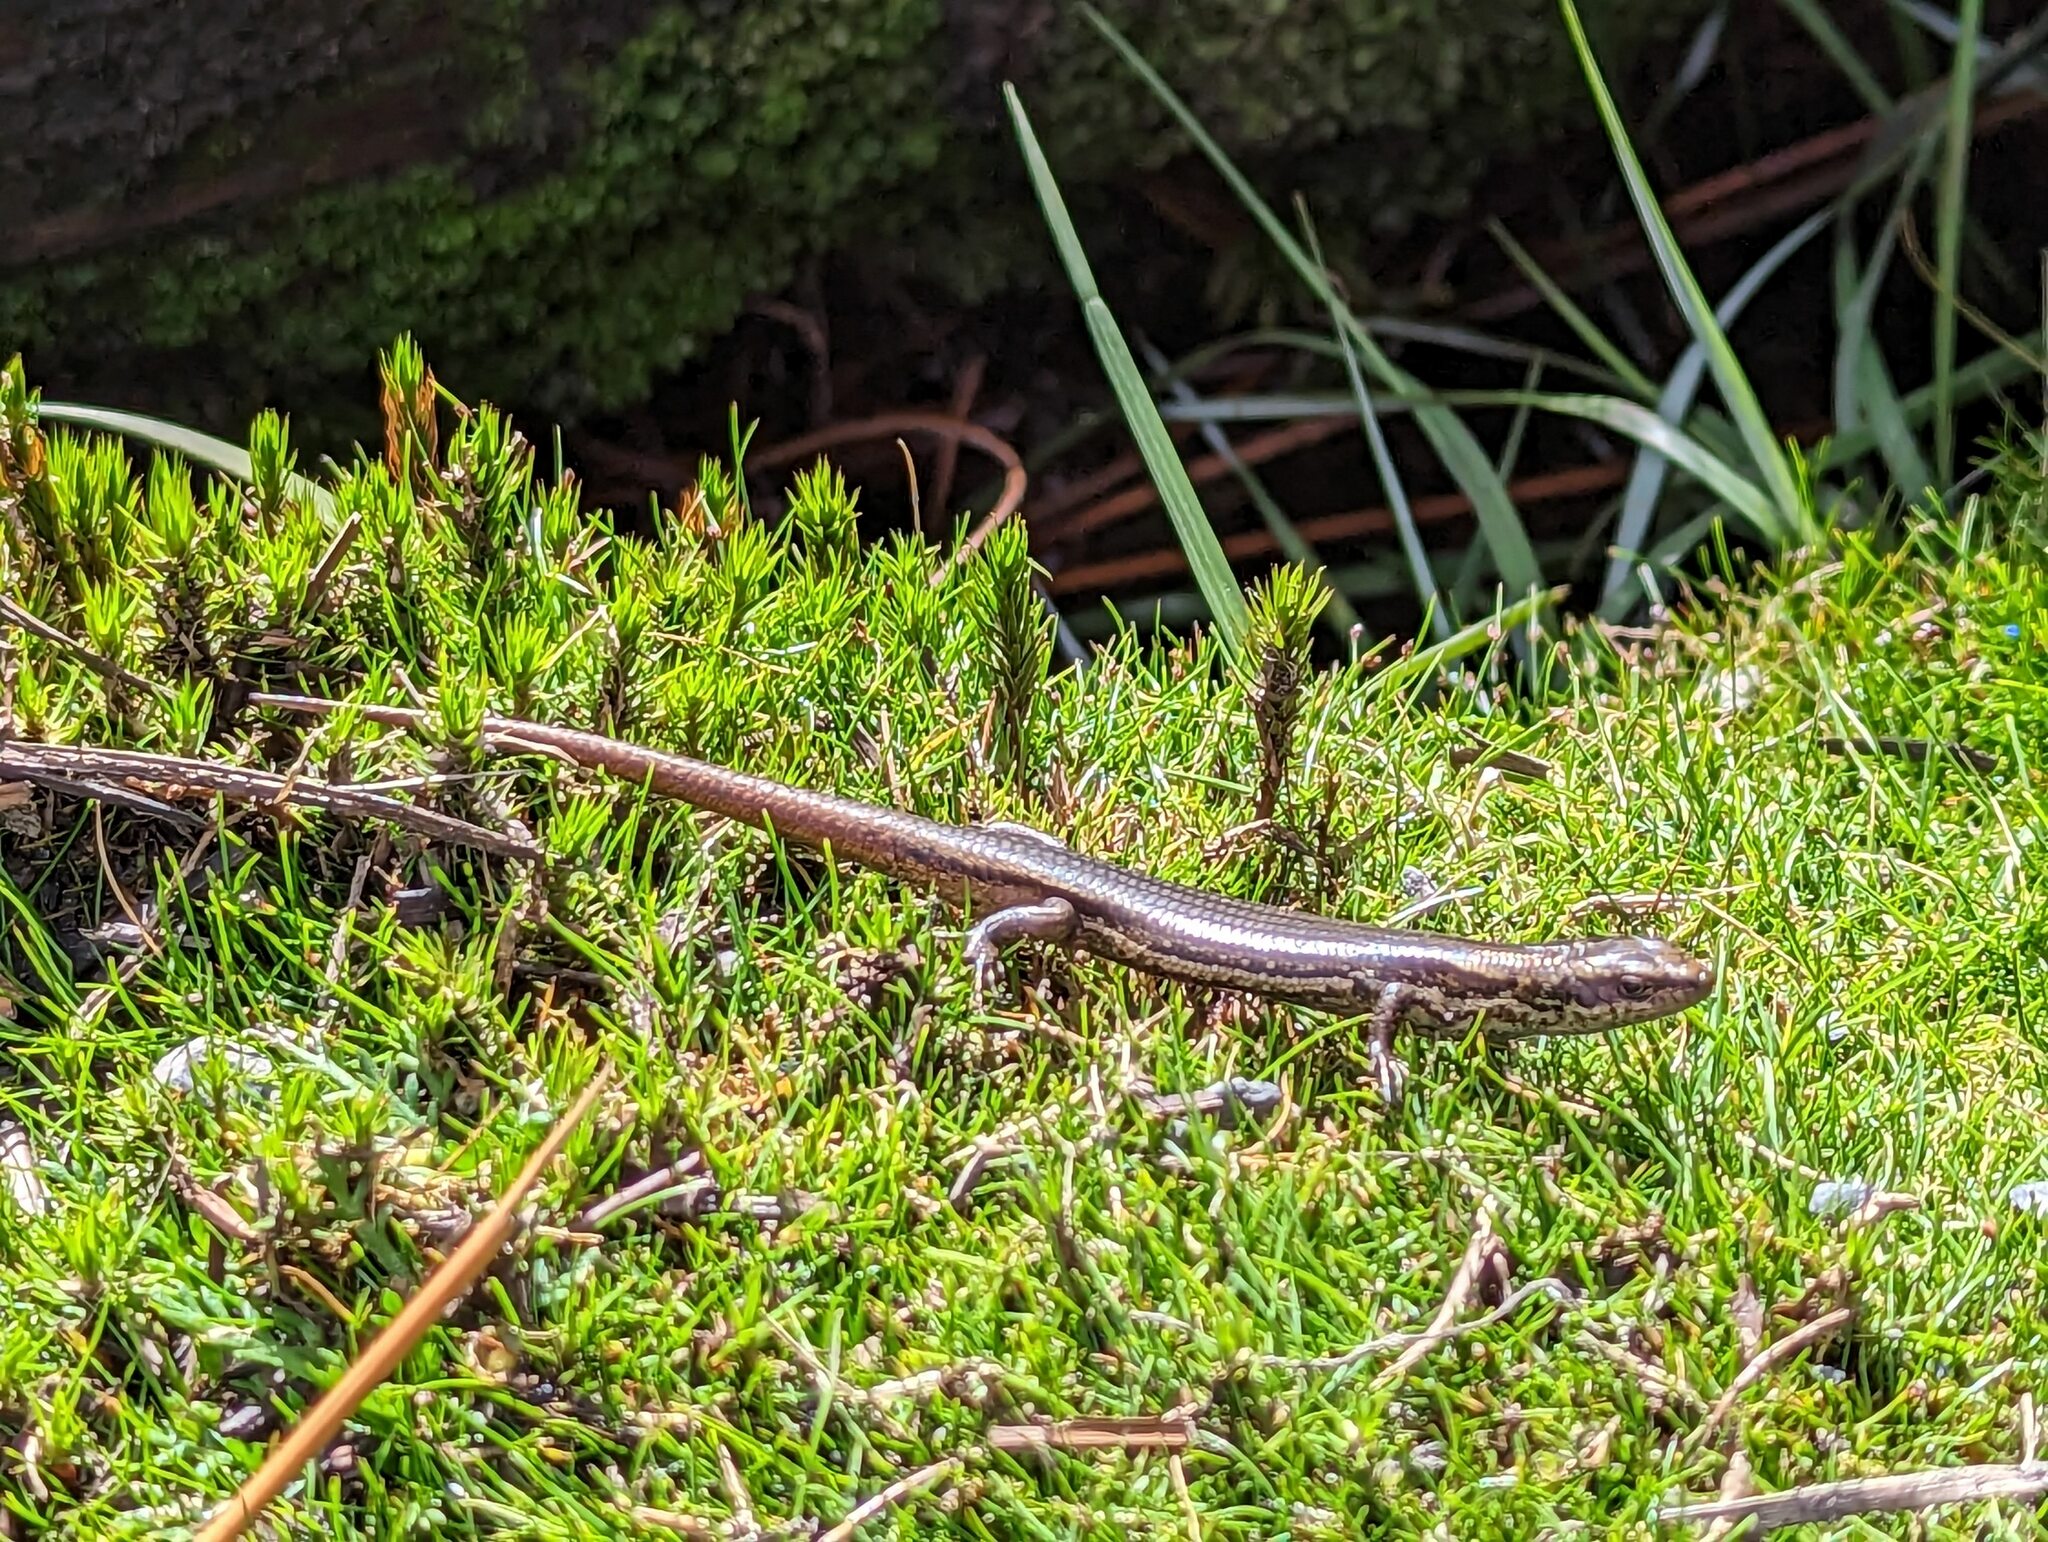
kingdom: Animalia
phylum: Chordata
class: Squamata
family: Scincidae
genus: Carinascincus
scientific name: Carinascincus metallicus
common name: Metallic cool-skink
